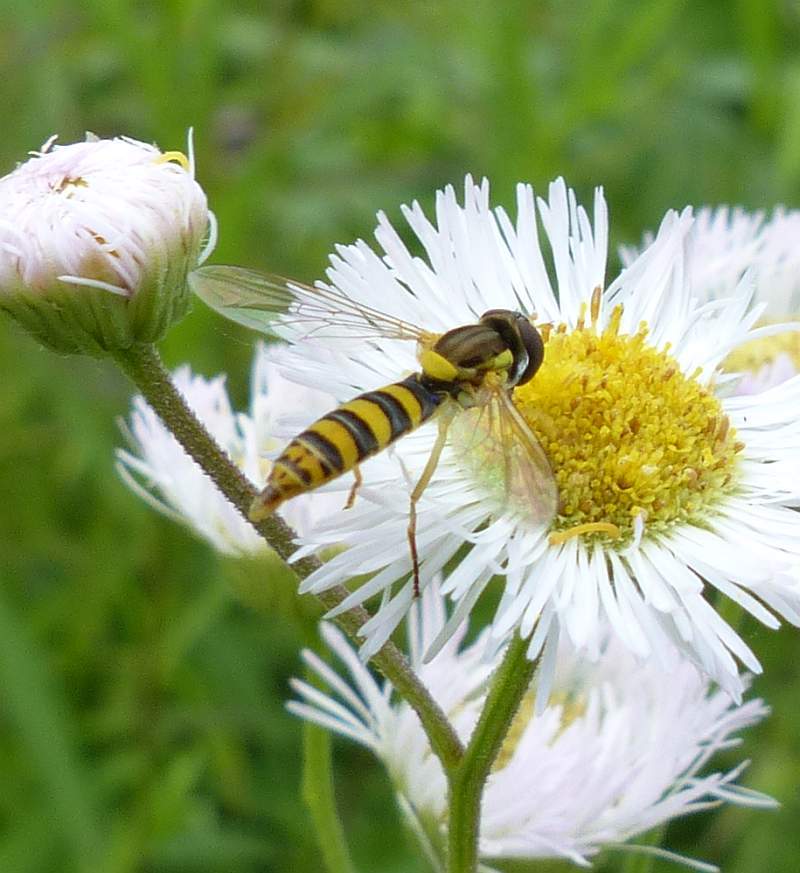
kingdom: Animalia
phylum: Arthropoda
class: Insecta
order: Diptera
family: Syrphidae
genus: Sphaerophoria
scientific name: Sphaerophoria
